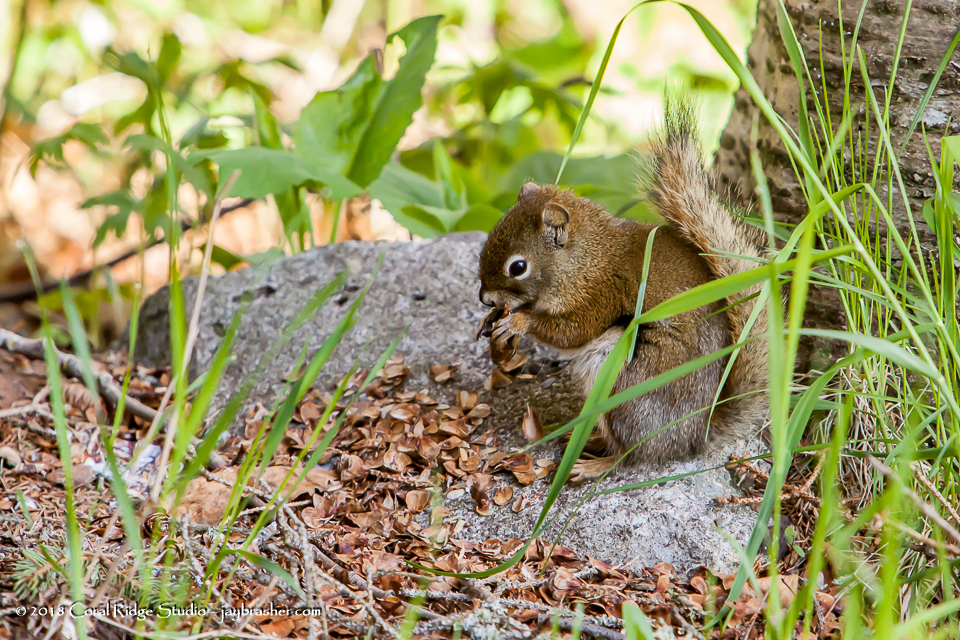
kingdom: Animalia
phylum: Chordata
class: Mammalia
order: Rodentia
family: Sciuridae
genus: Tamiasciurus
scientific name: Tamiasciurus hudsonicus
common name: Red squirrel
